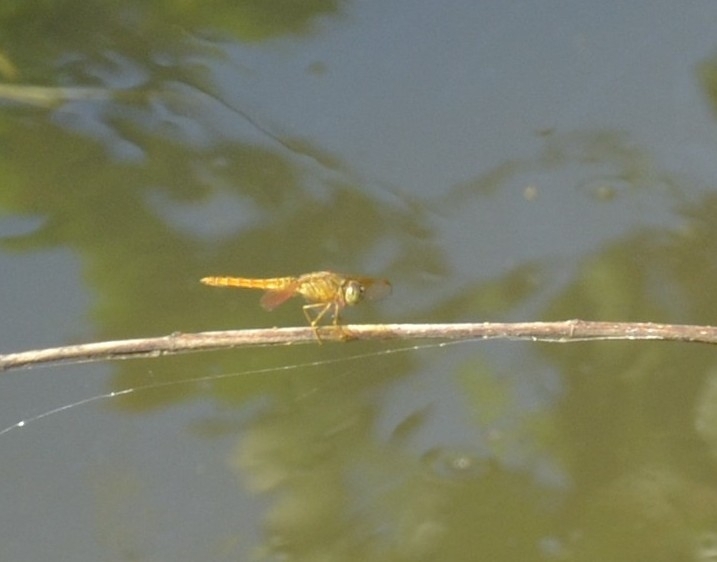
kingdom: Animalia
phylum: Arthropoda
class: Insecta
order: Odonata
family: Libellulidae
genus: Brachythemis
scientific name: Brachythemis contaminata
